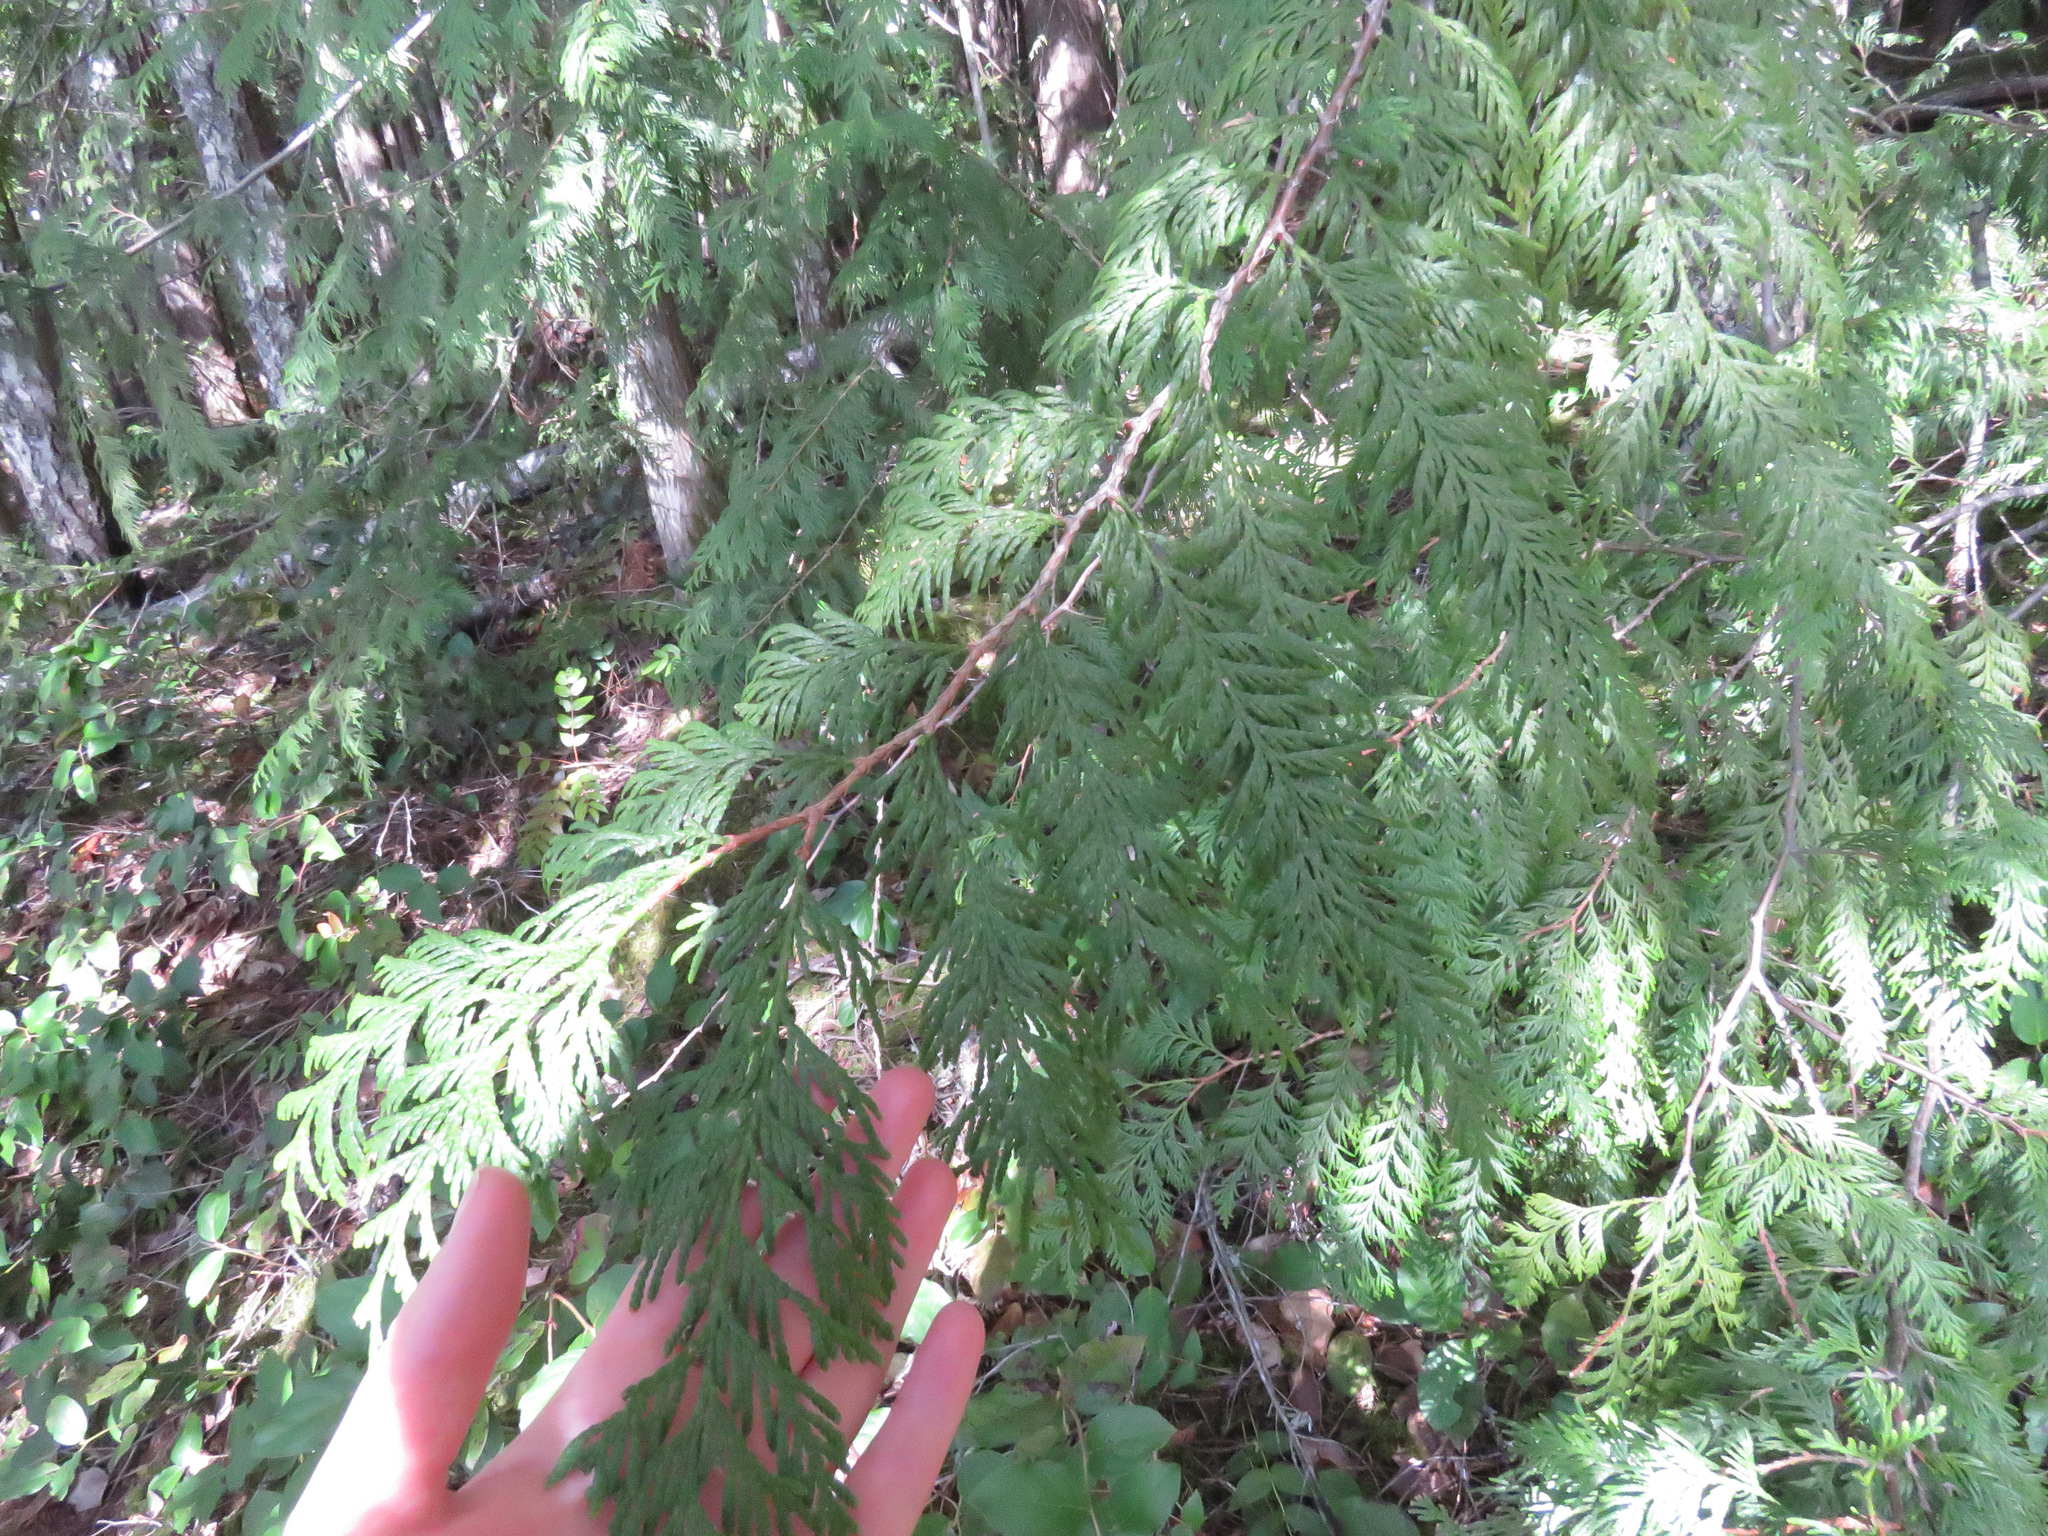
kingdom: Plantae
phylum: Tracheophyta
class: Pinopsida
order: Pinales
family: Cupressaceae
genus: Thuja
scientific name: Thuja plicata
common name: Western red-cedar
